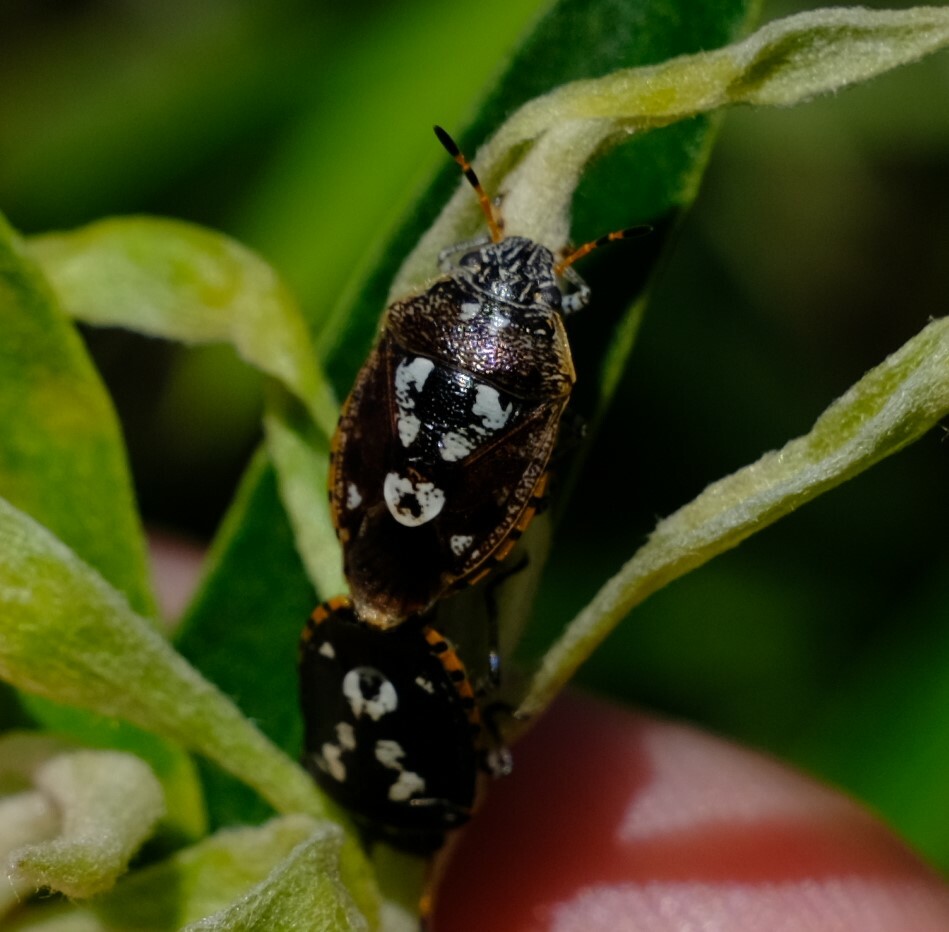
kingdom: Animalia
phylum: Arthropoda
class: Insecta
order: Hemiptera
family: Pentatomidae
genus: Pseudapines
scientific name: Pseudapines
